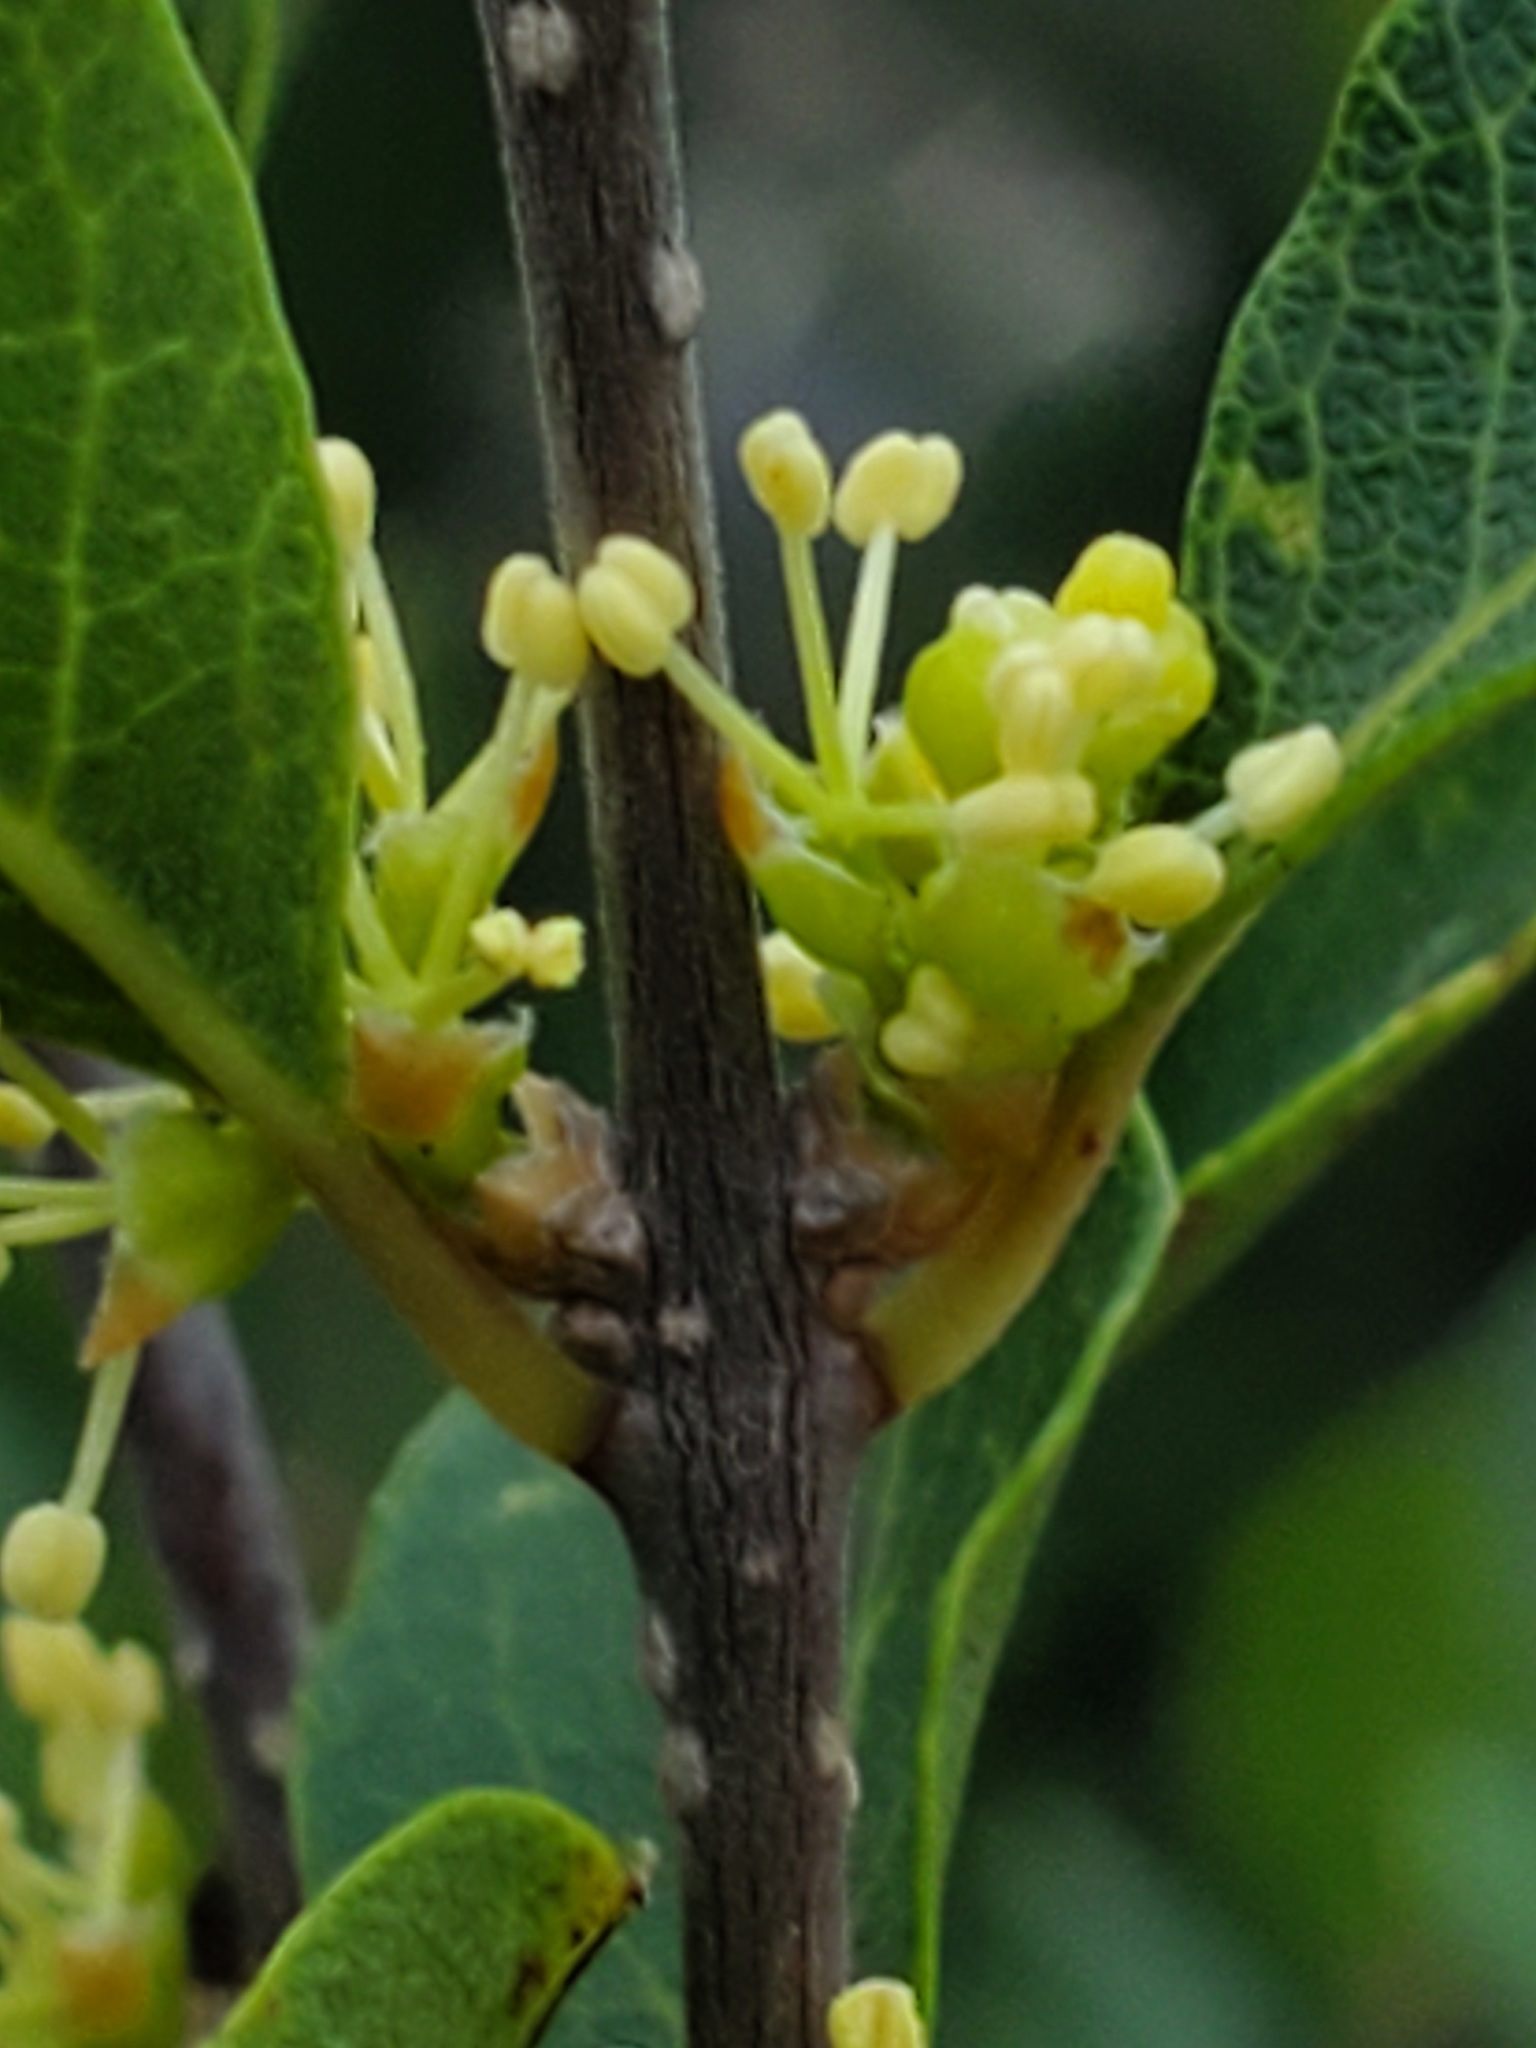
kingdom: Plantae
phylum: Tracheophyta
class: Magnoliopsida
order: Lamiales
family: Oleaceae
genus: Forestiera
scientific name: Forestiera reticulata
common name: Netleaf swamp-privet
